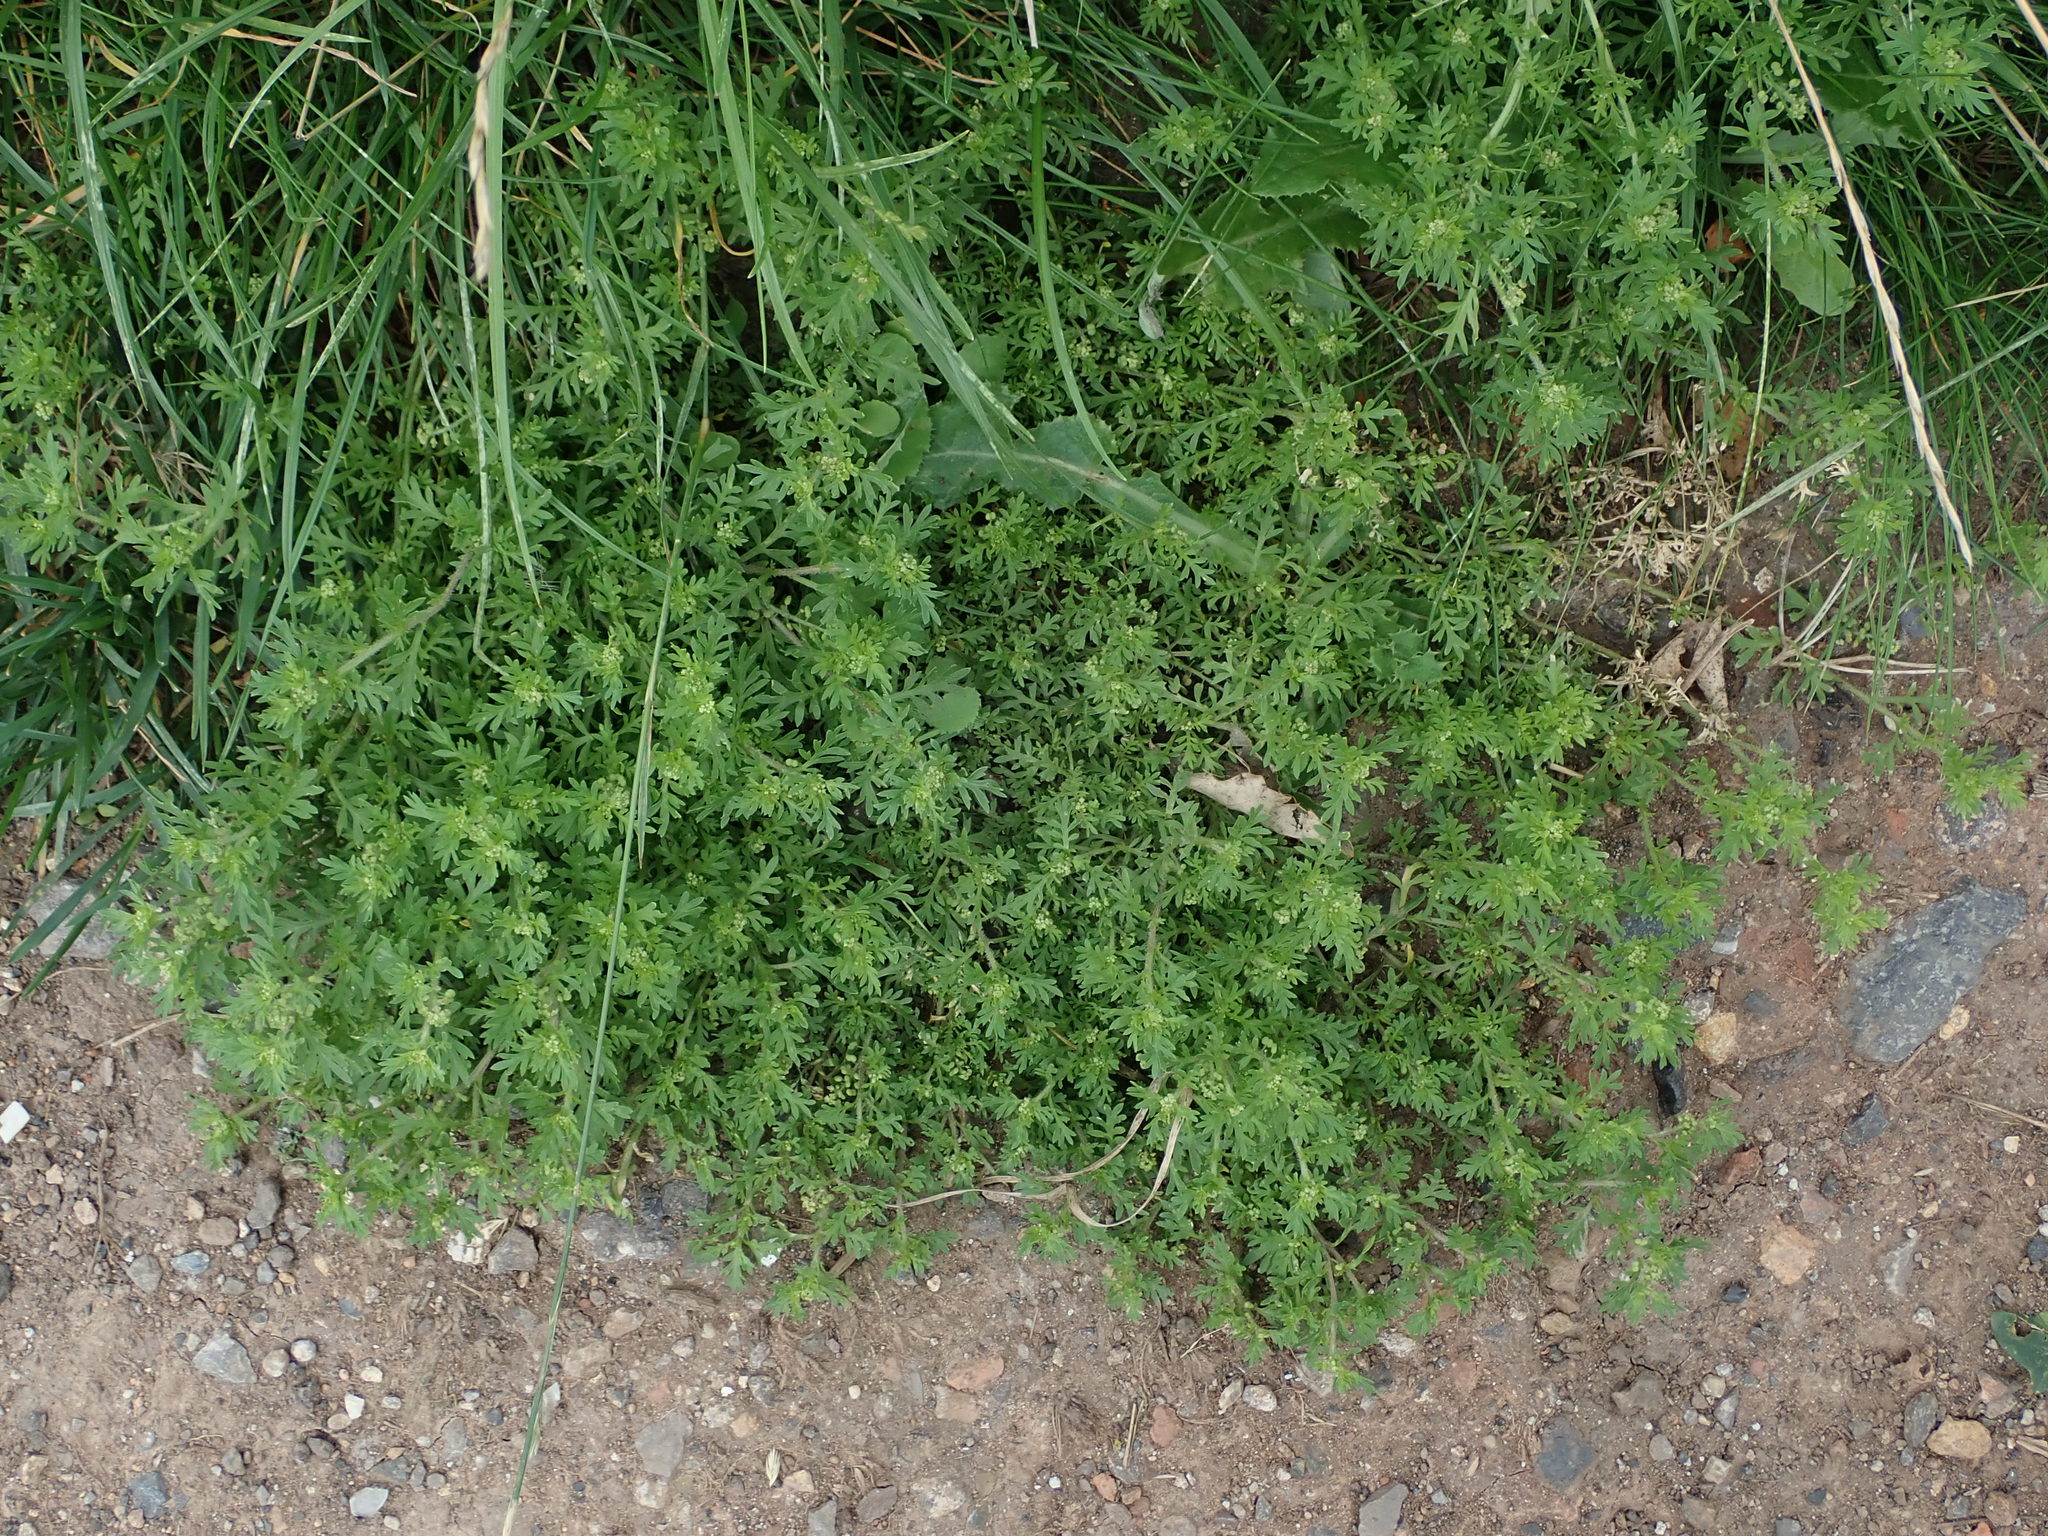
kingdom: Plantae
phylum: Tracheophyta
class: Magnoliopsida
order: Brassicales
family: Brassicaceae
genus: Lepidium
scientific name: Lepidium didymum
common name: Lesser swinecress
